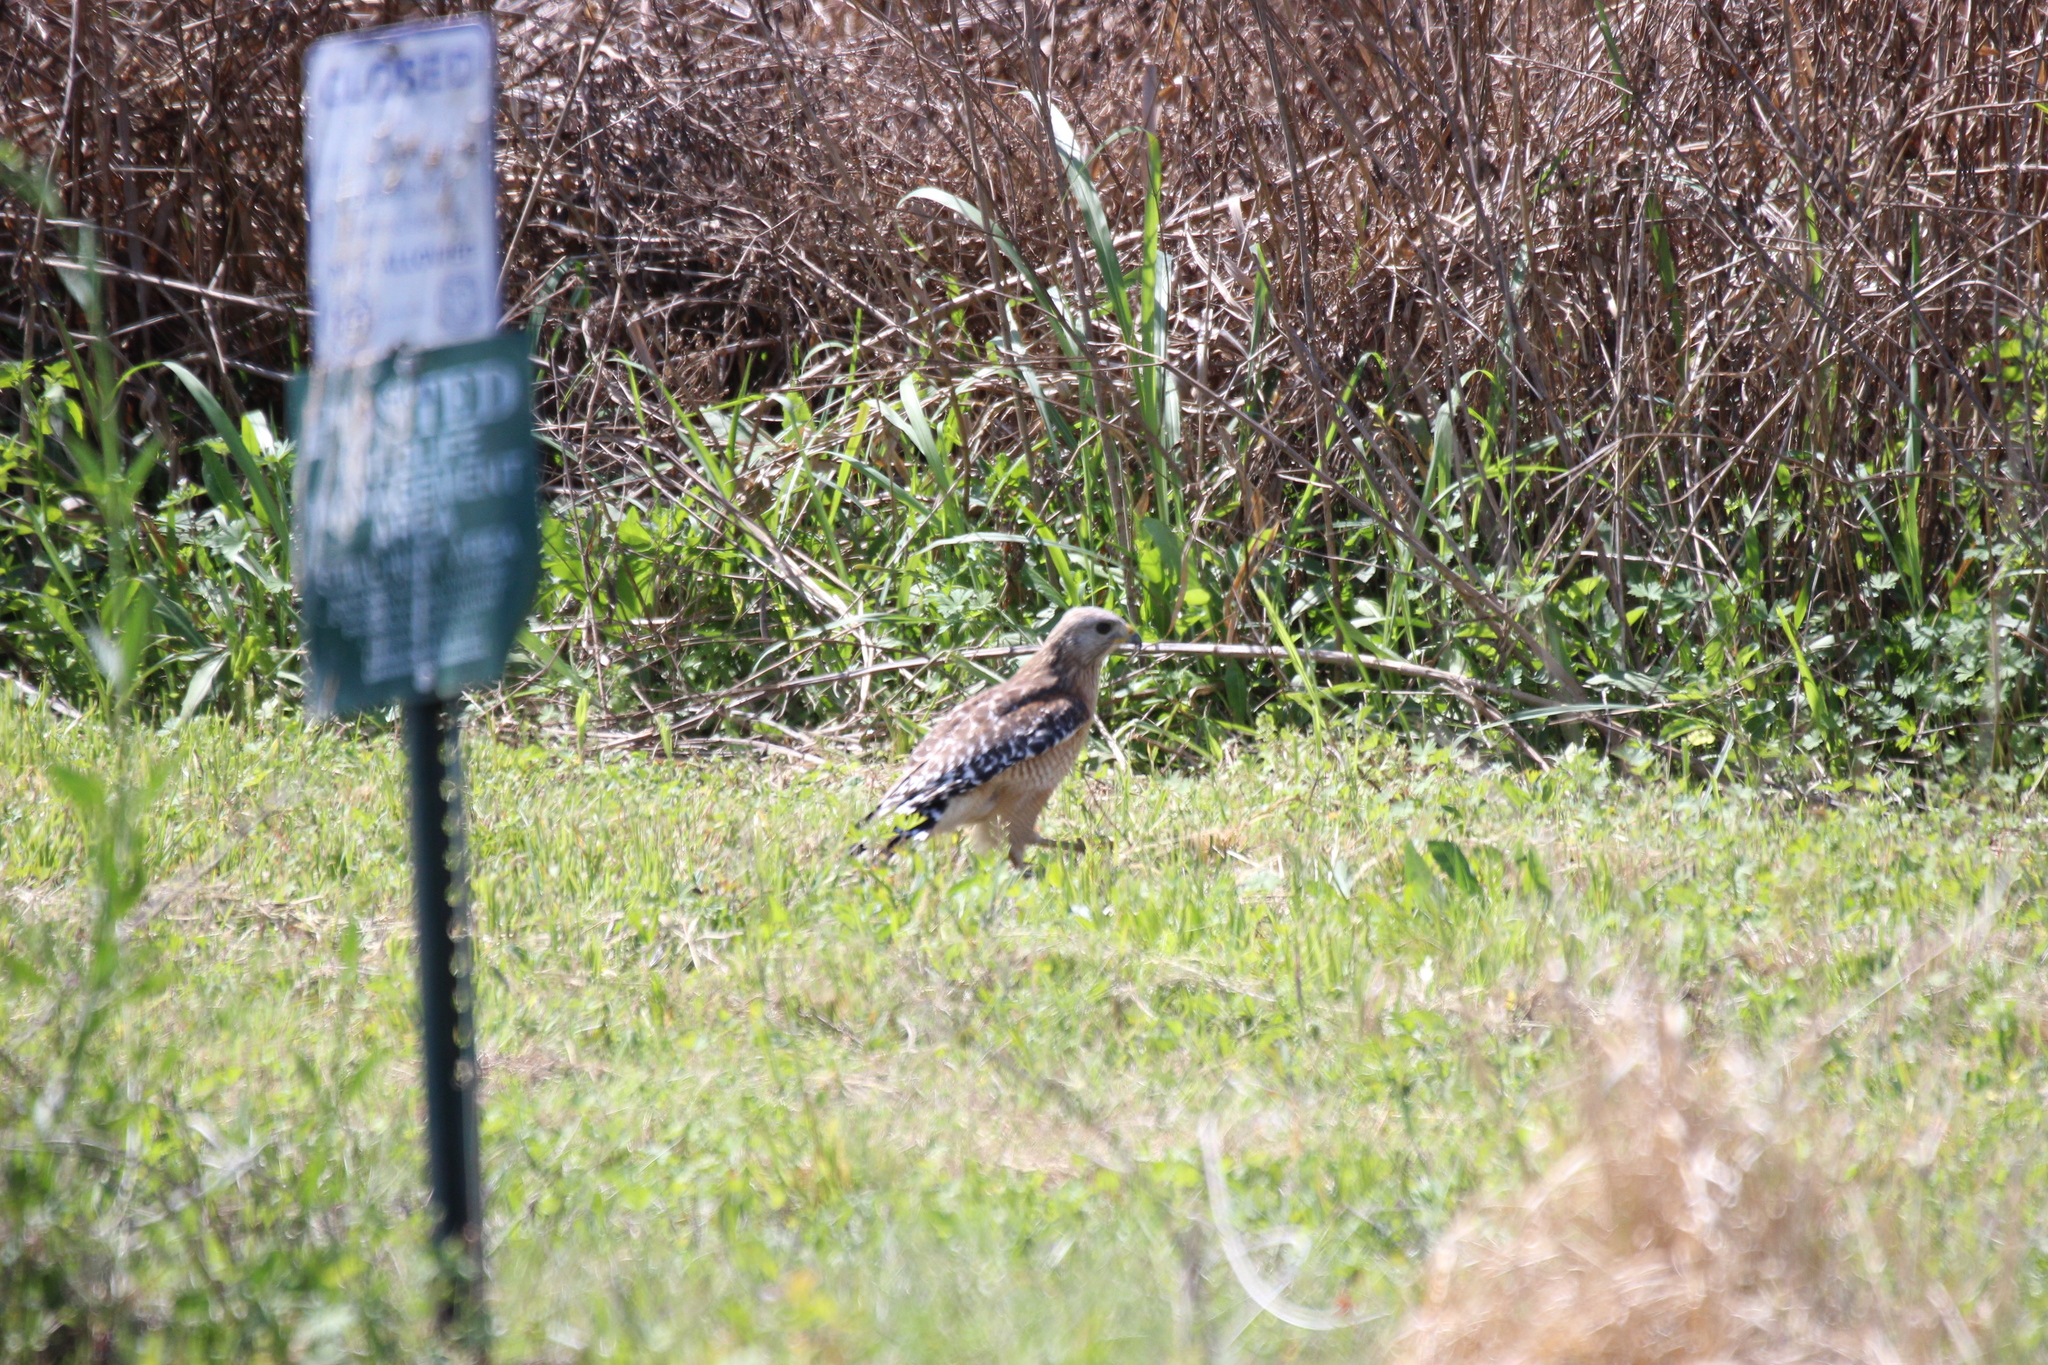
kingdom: Animalia
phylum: Chordata
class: Aves
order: Accipitriformes
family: Accipitridae
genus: Buteo
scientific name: Buteo lineatus
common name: Red-shouldered hawk
